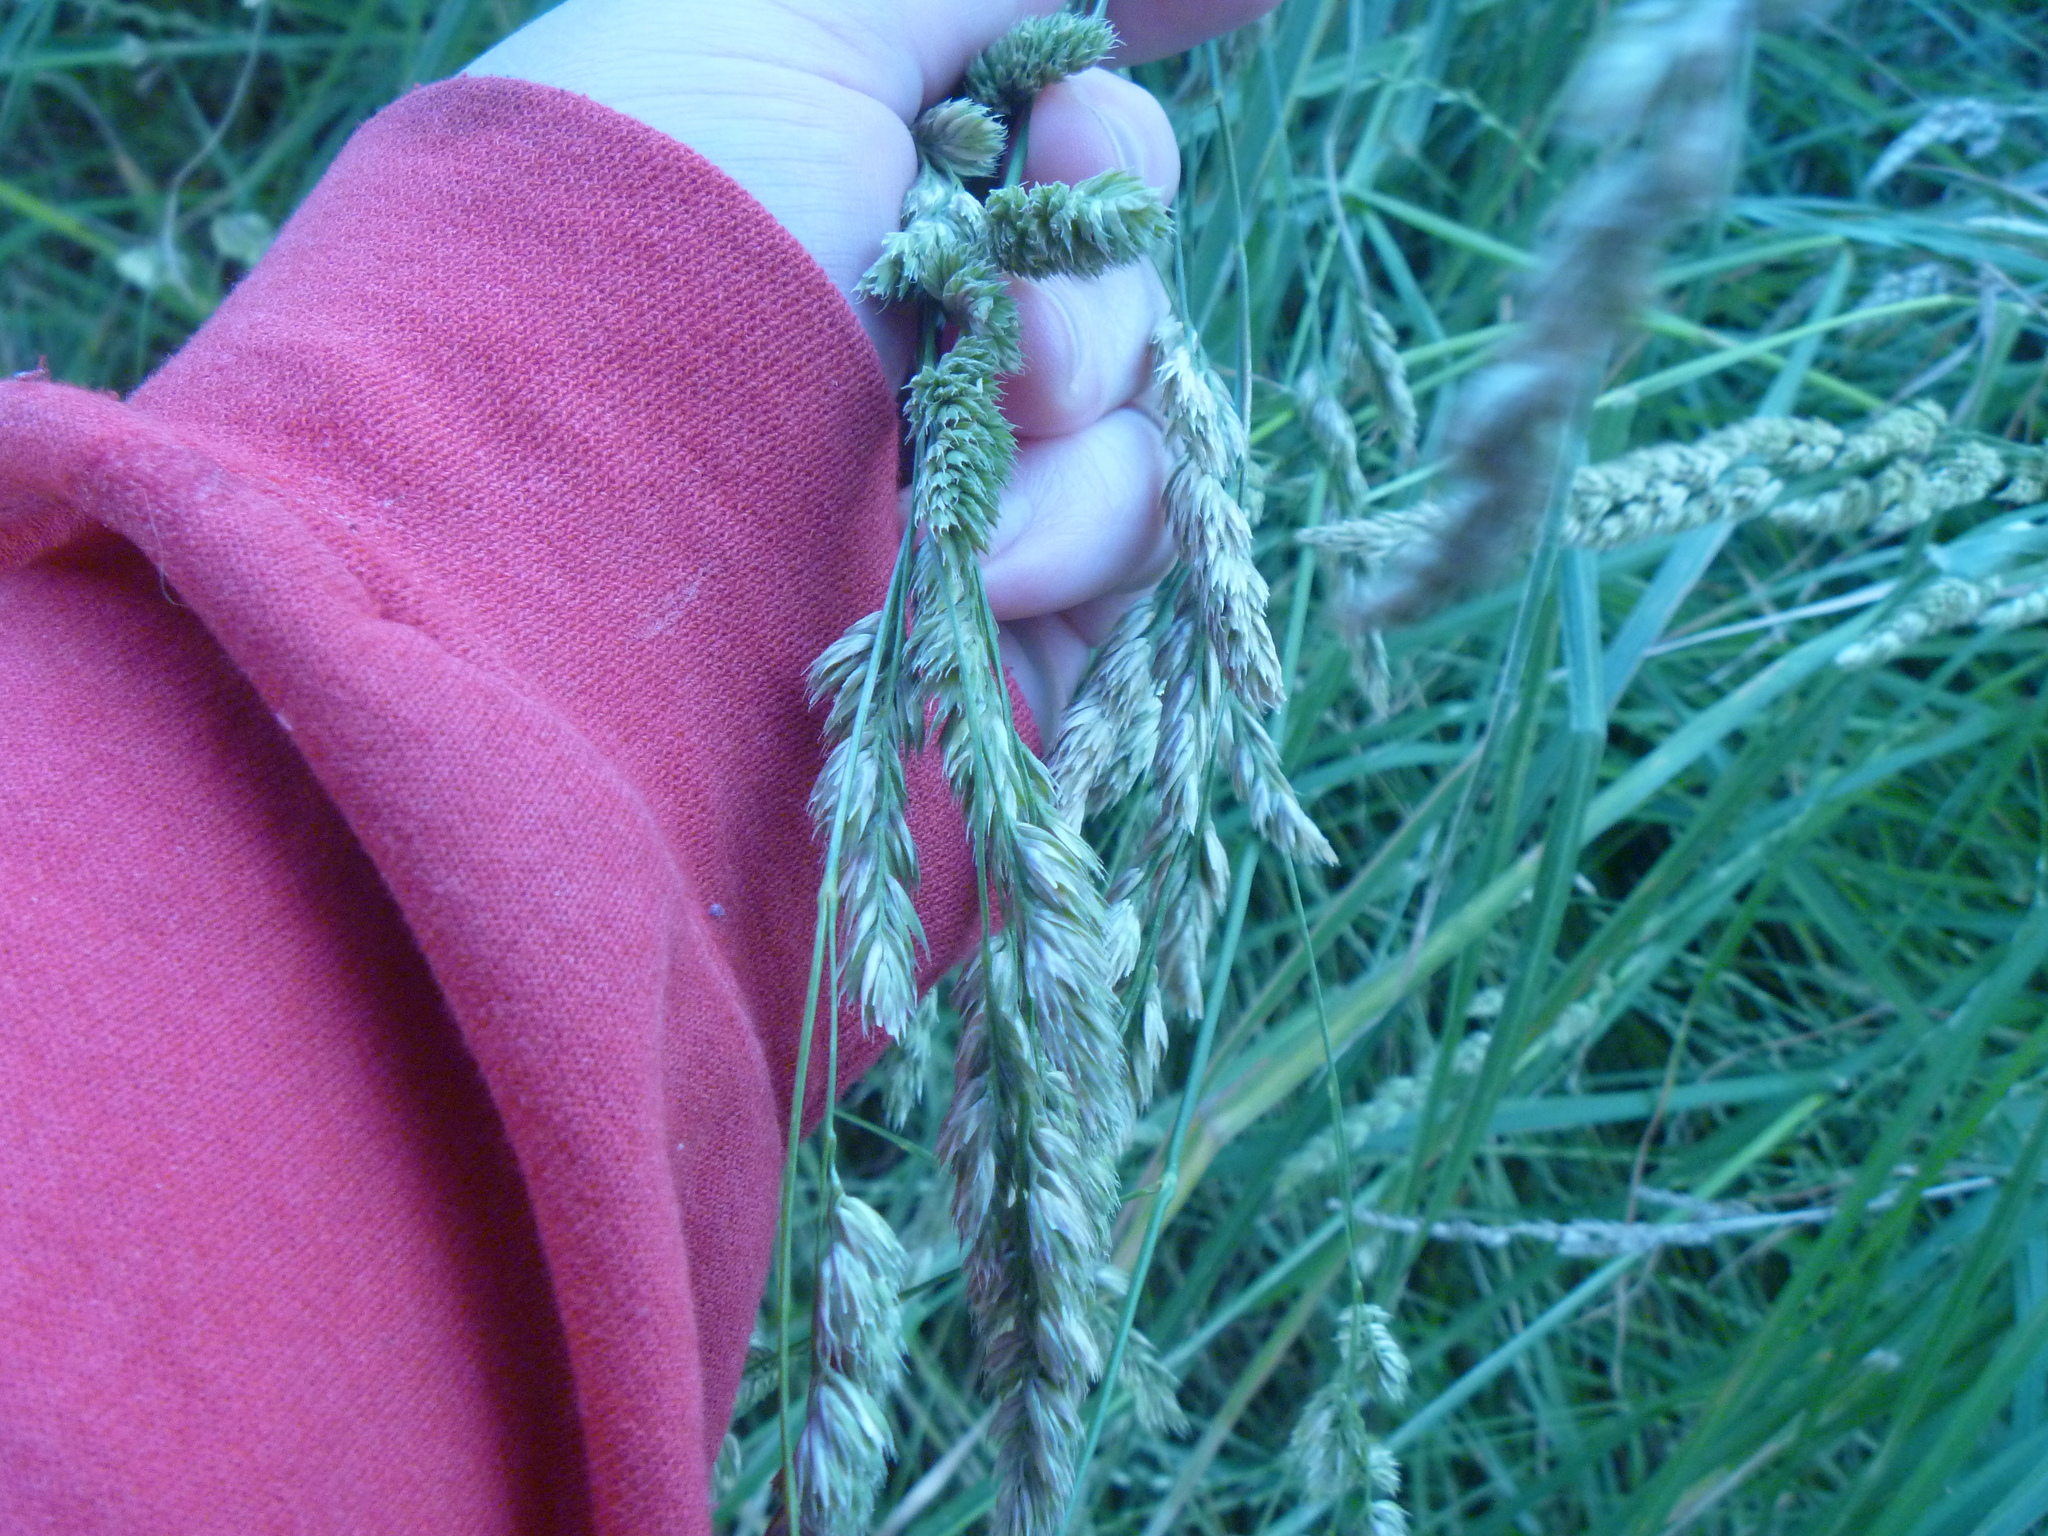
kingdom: Plantae
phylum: Tracheophyta
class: Liliopsida
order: Poales
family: Poaceae
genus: Dactylis
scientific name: Dactylis glomerata
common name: Orchardgrass
